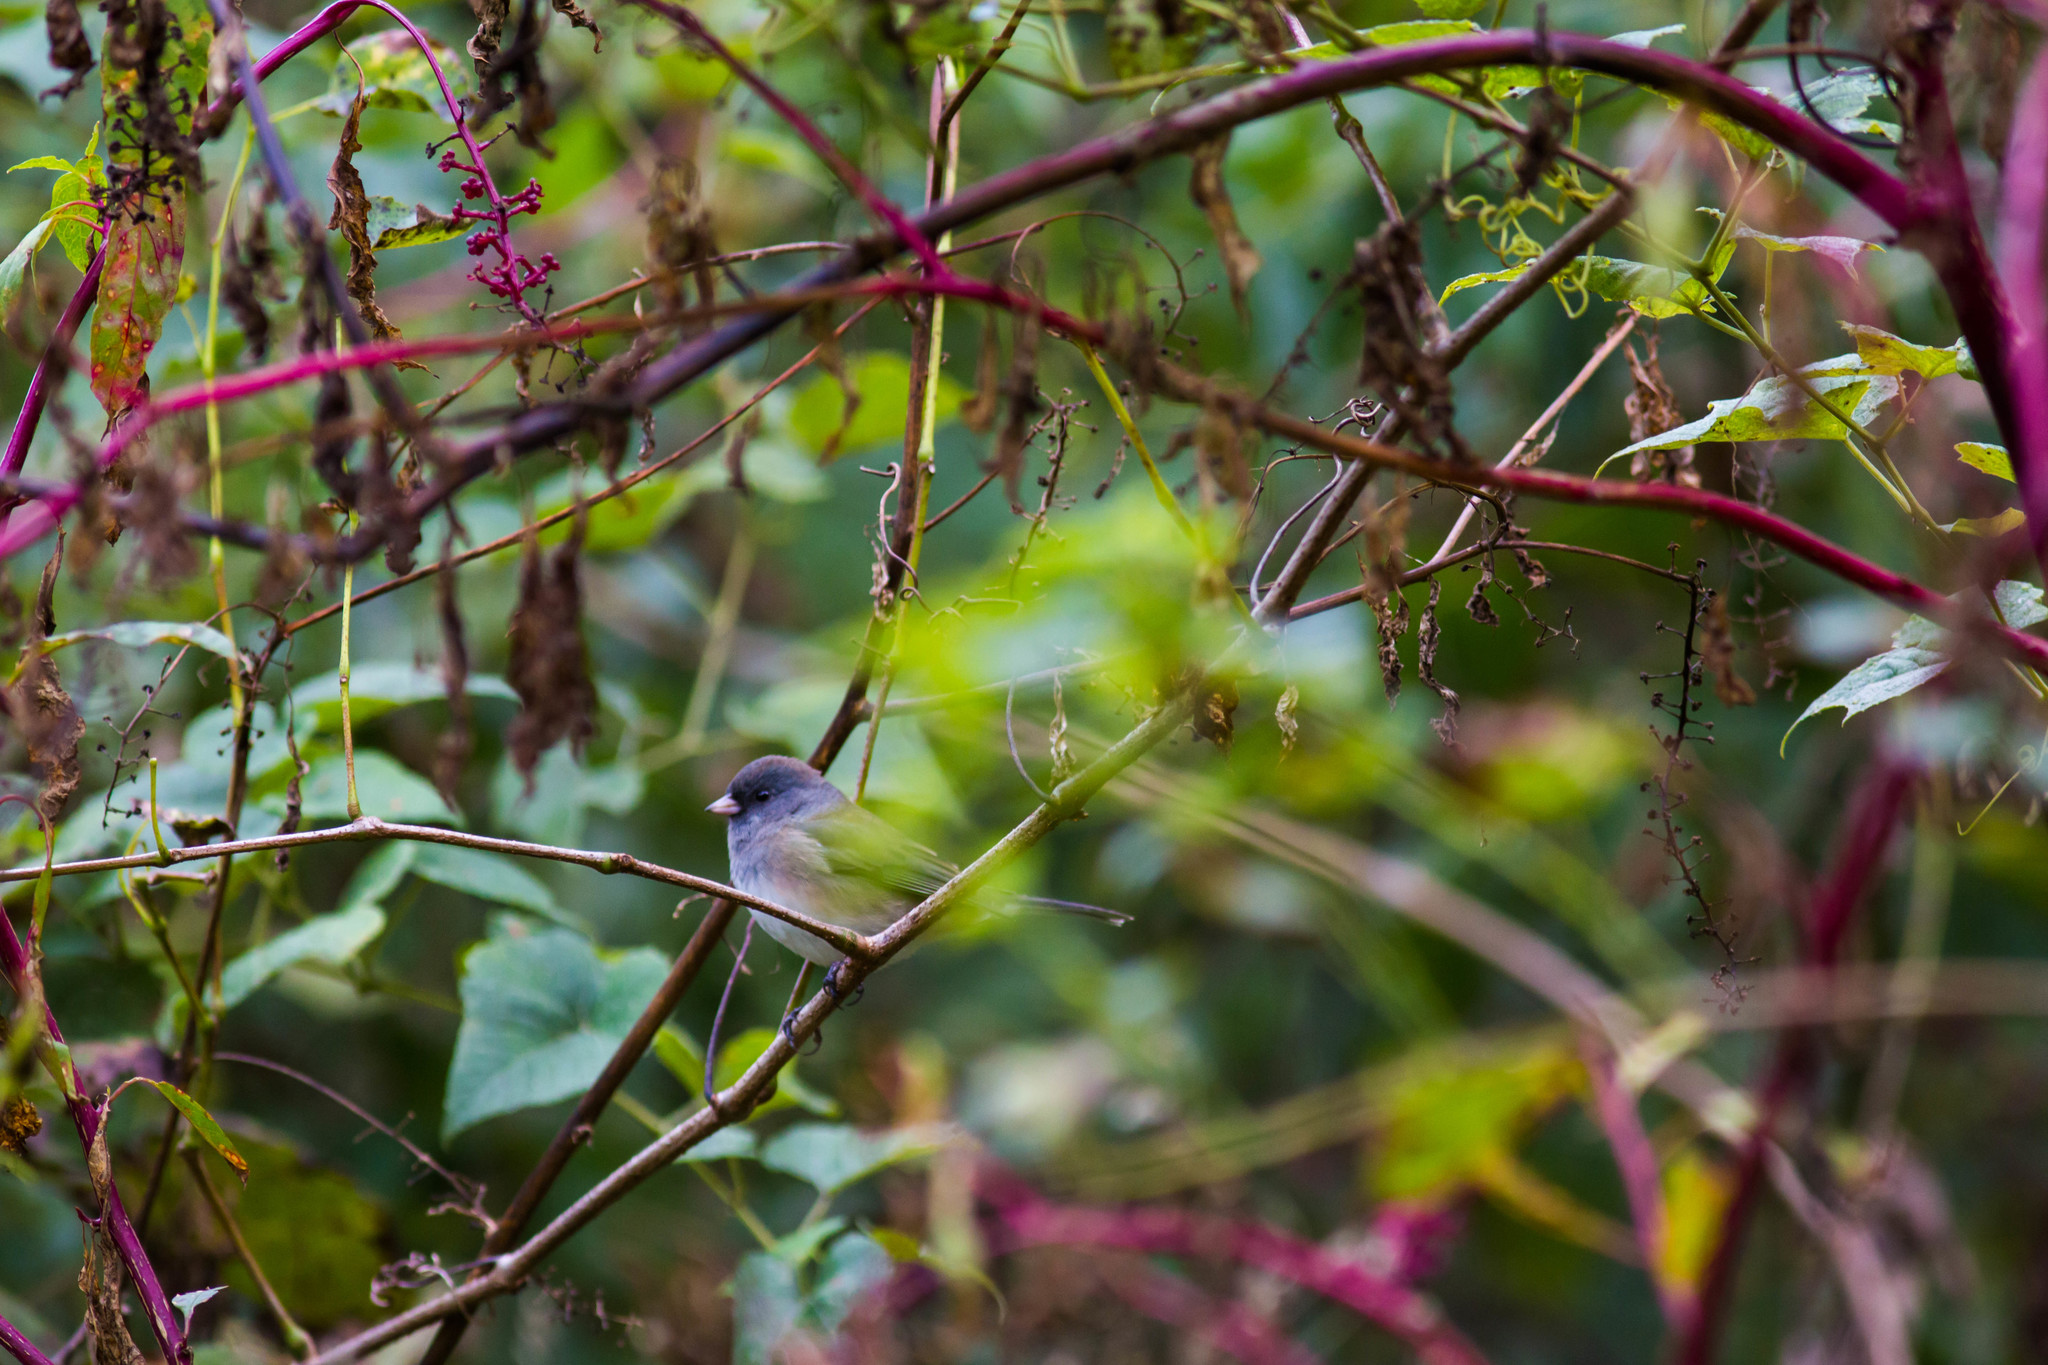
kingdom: Animalia
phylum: Chordata
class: Aves
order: Passeriformes
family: Passerellidae
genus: Junco
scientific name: Junco hyemalis
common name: Dark-eyed junco
